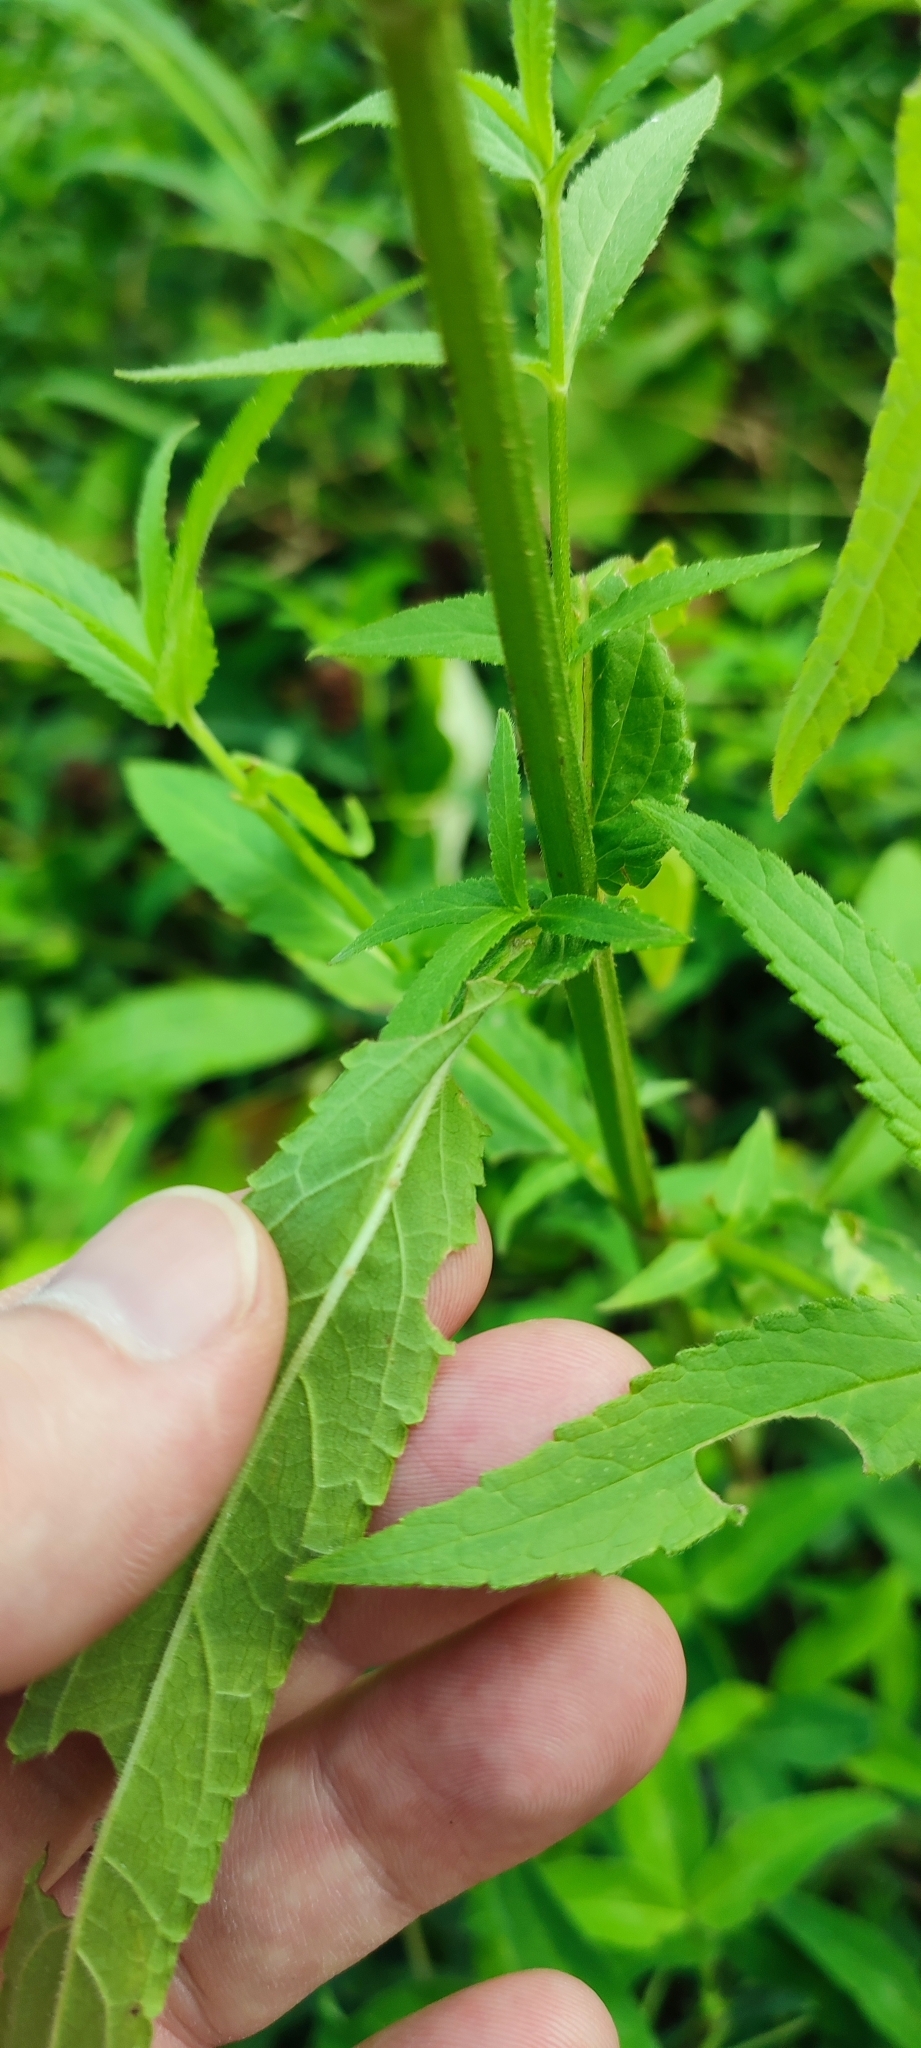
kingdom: Plantae
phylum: Tracheophyta
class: Magnoliopsida
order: Lamiales
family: Lamiaceae
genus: Stachys
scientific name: Stachys palustris
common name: Marsh woundwort
